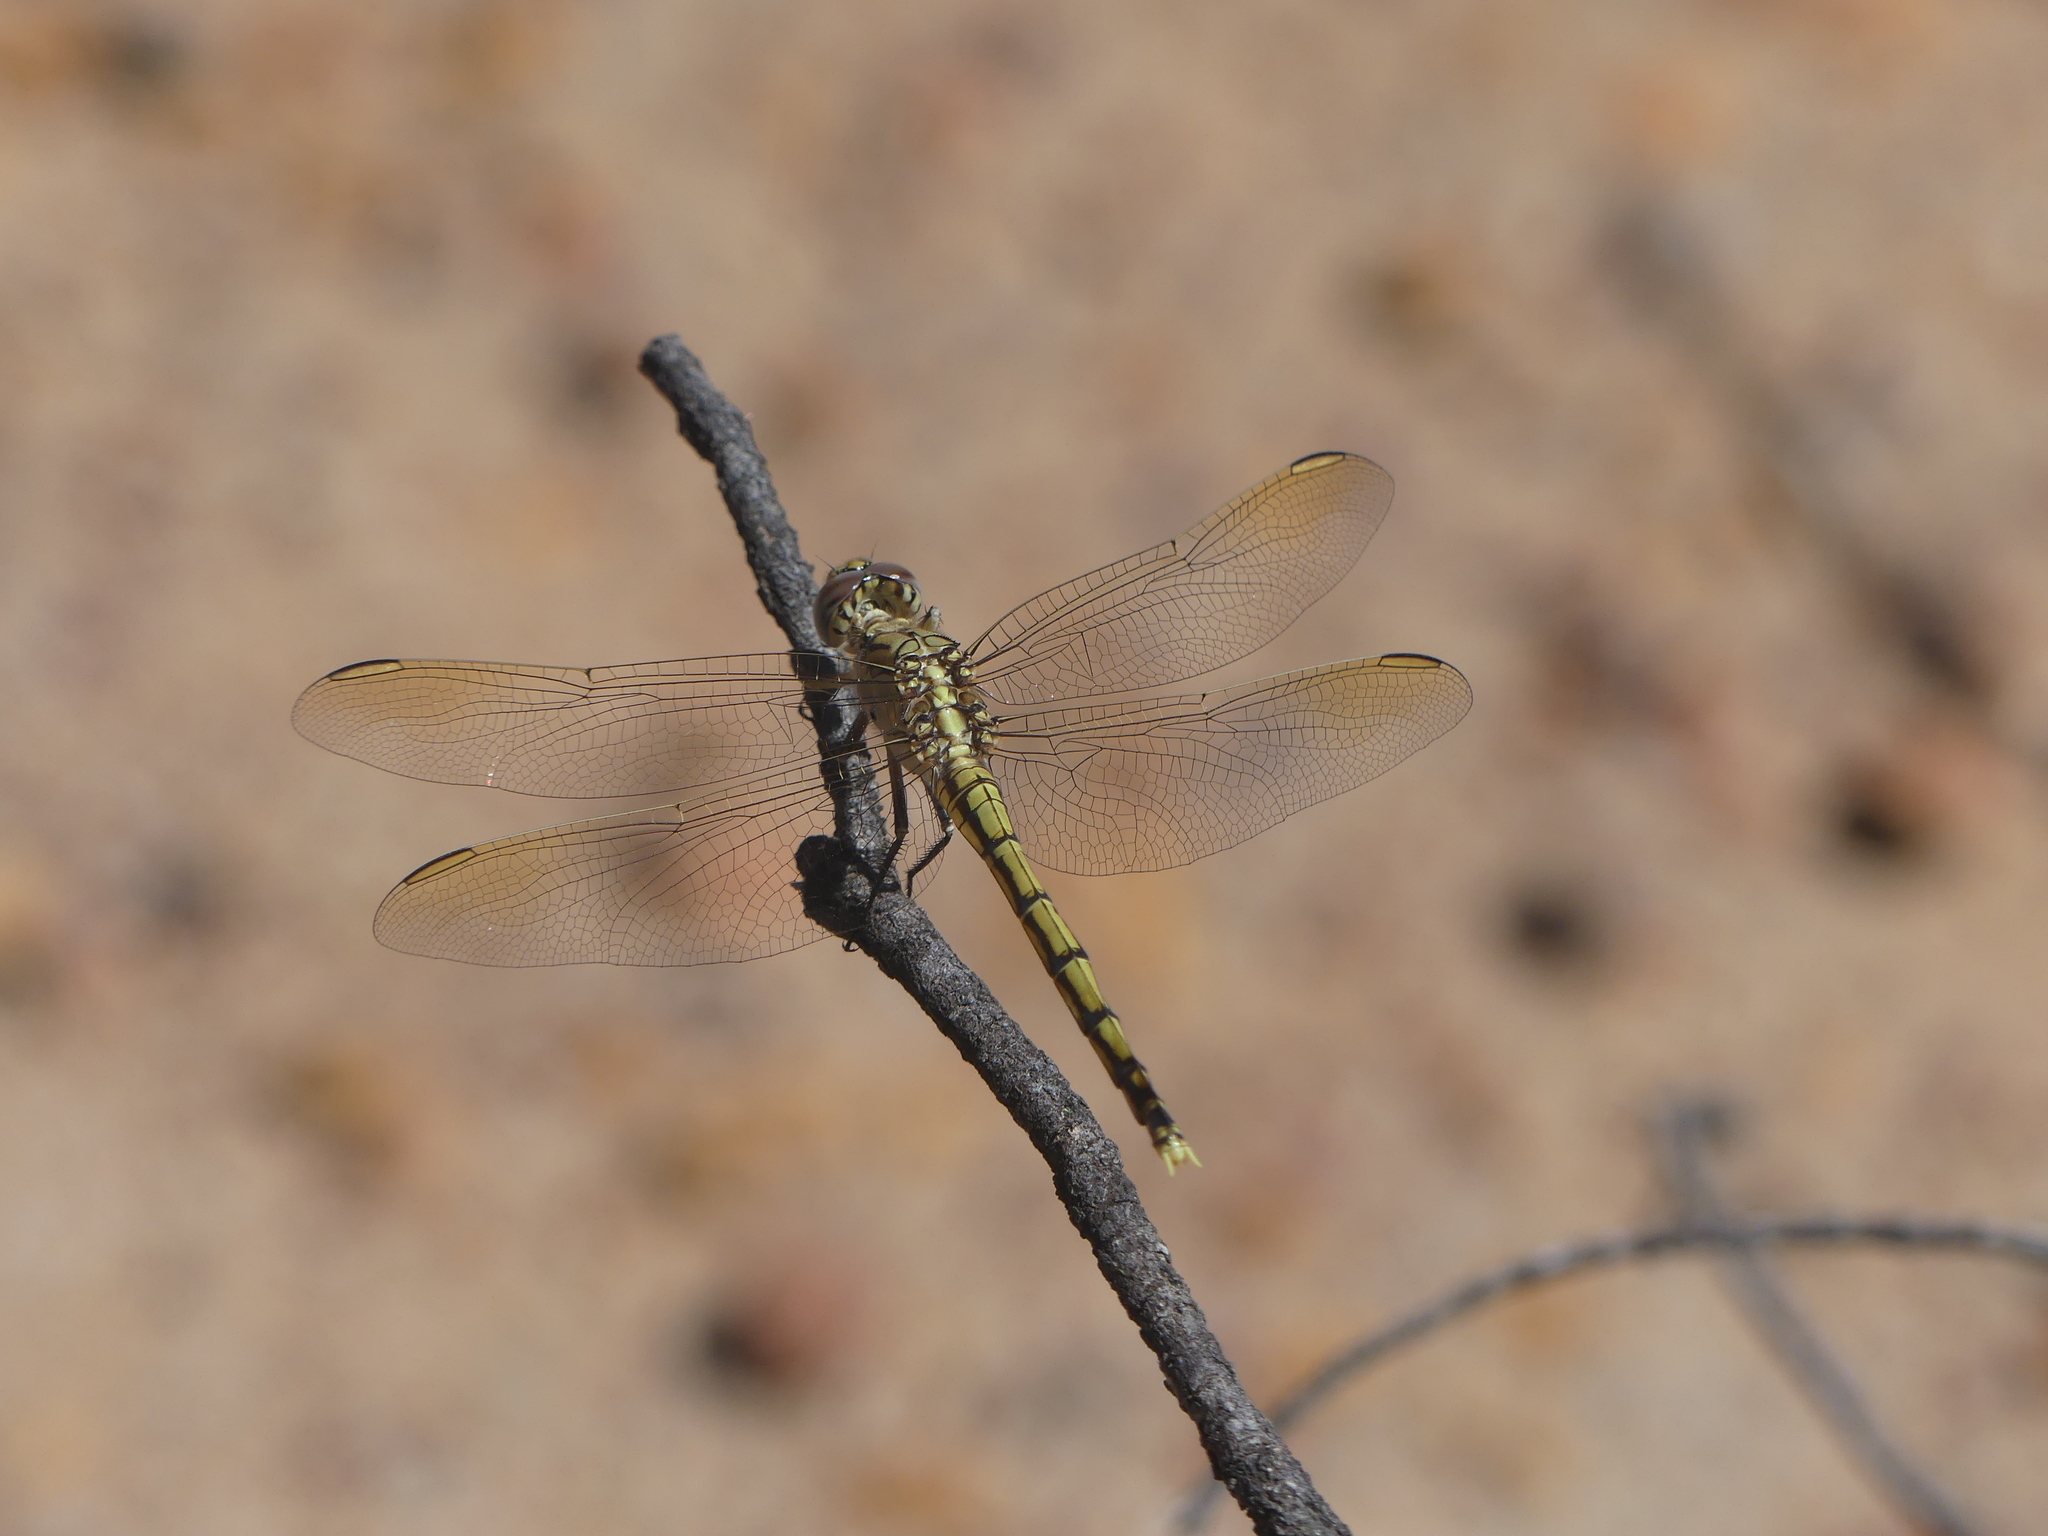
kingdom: Animalia
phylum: Arthropoda
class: Insecta
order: Odonata
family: Libellulidae
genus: Orthetrum
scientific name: Orthetrum caledonicum
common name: Blue skimmer
